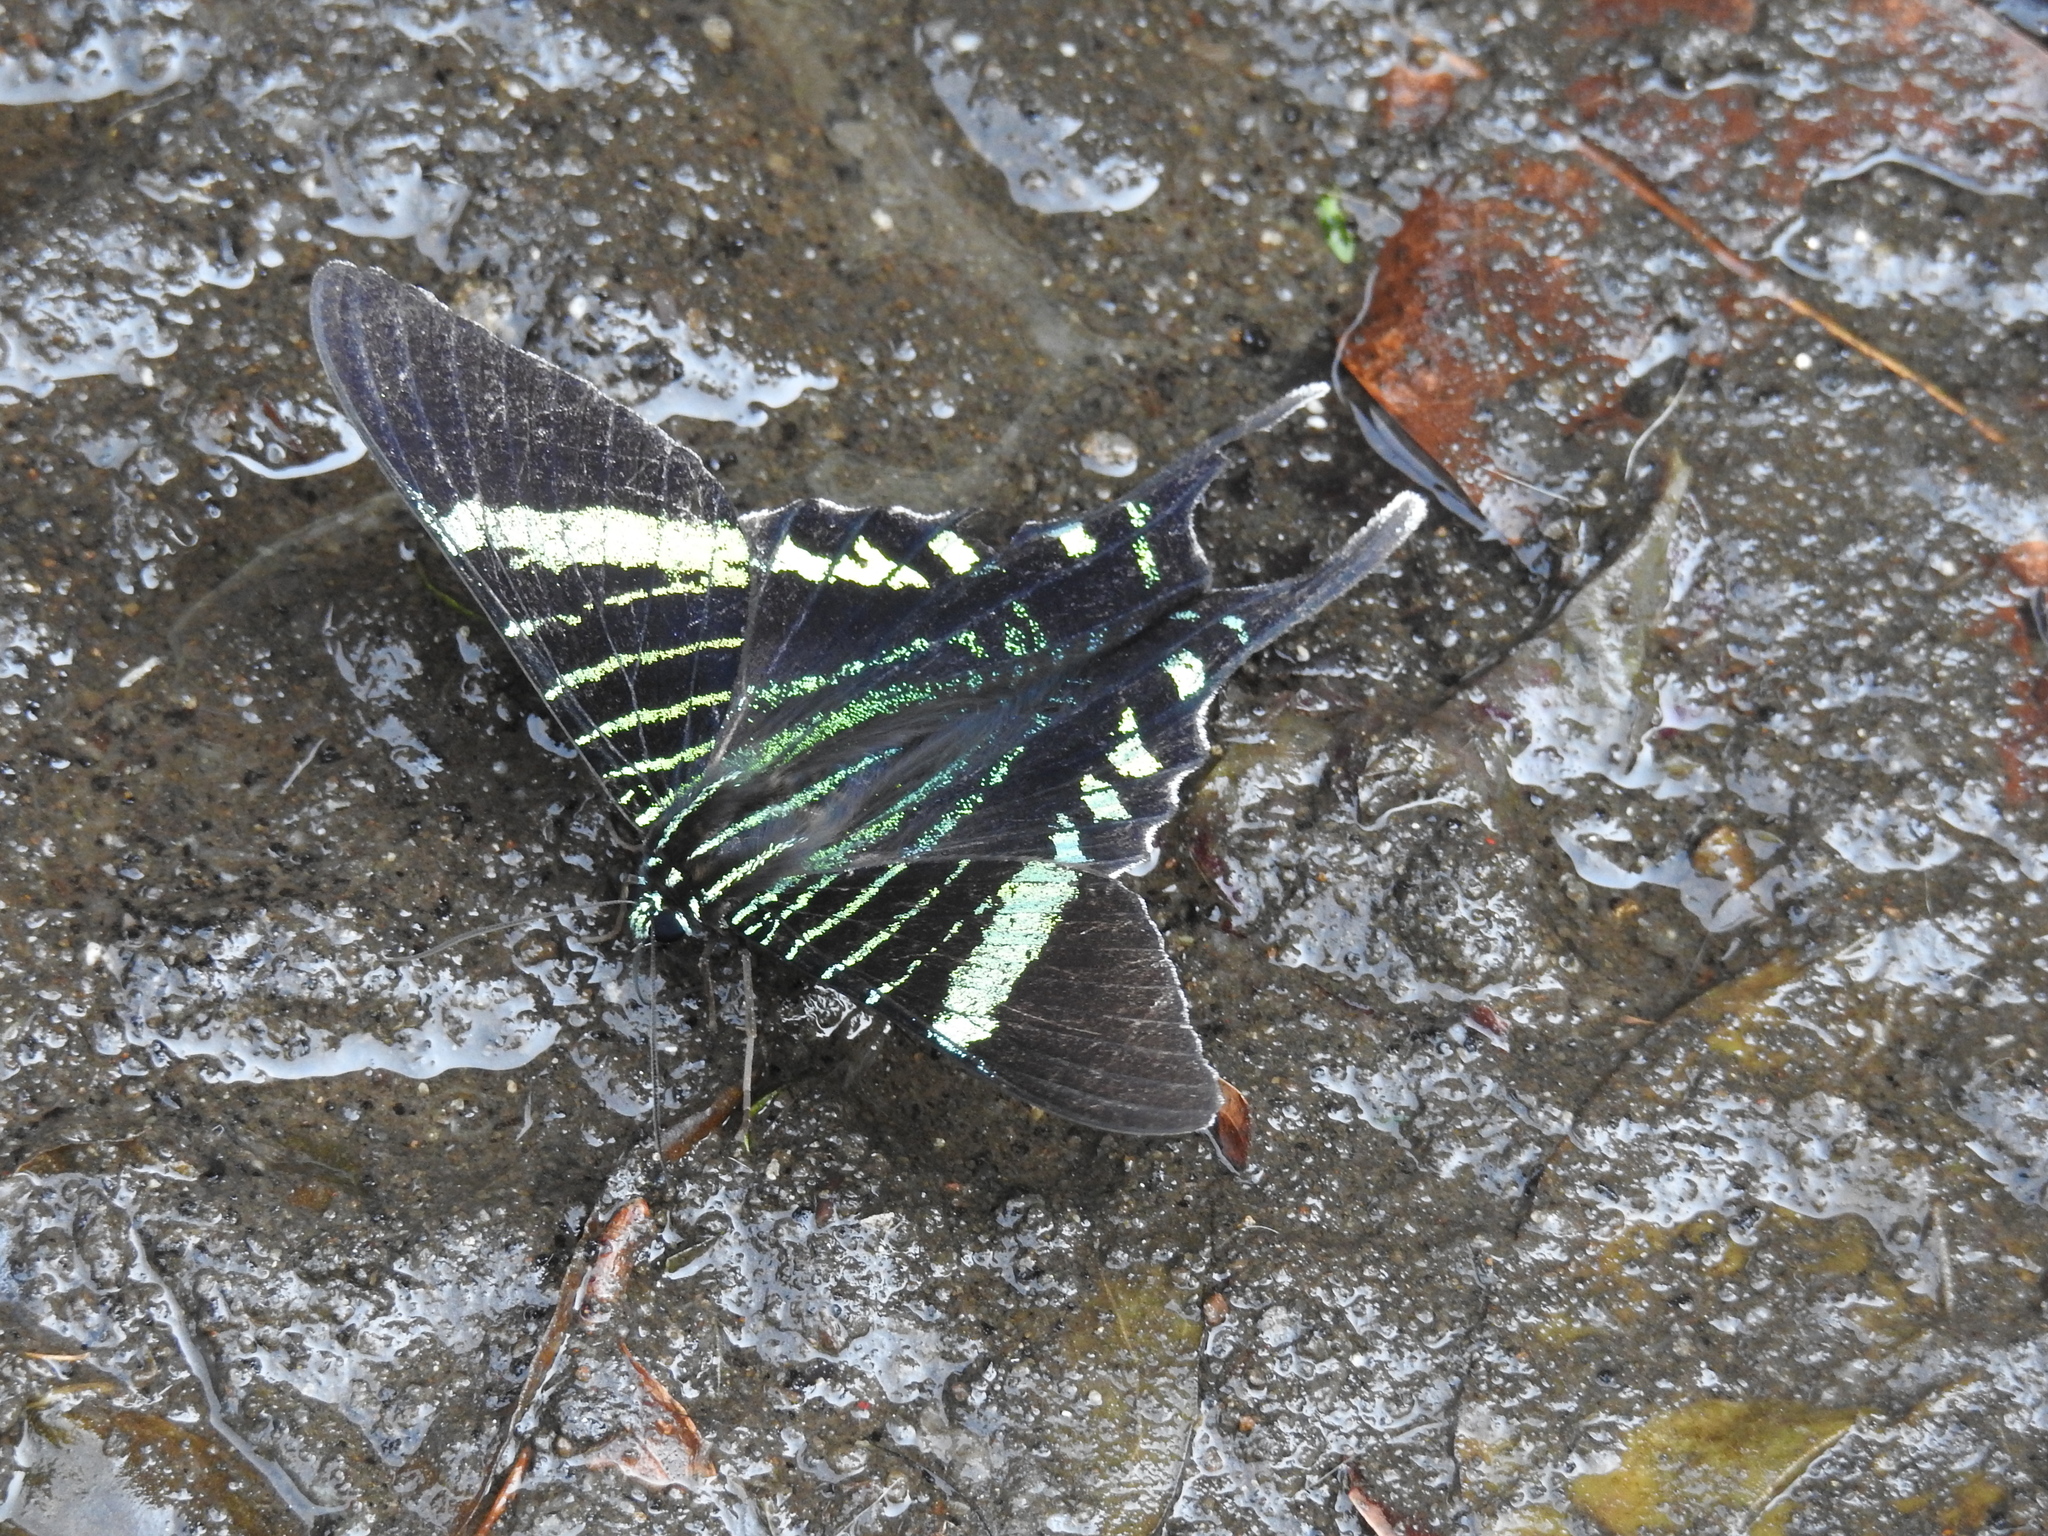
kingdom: Animalia
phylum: Arthropoda
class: Insecta
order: Lepidoptera
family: Uraniidae
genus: Urania
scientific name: Urania fulgens
